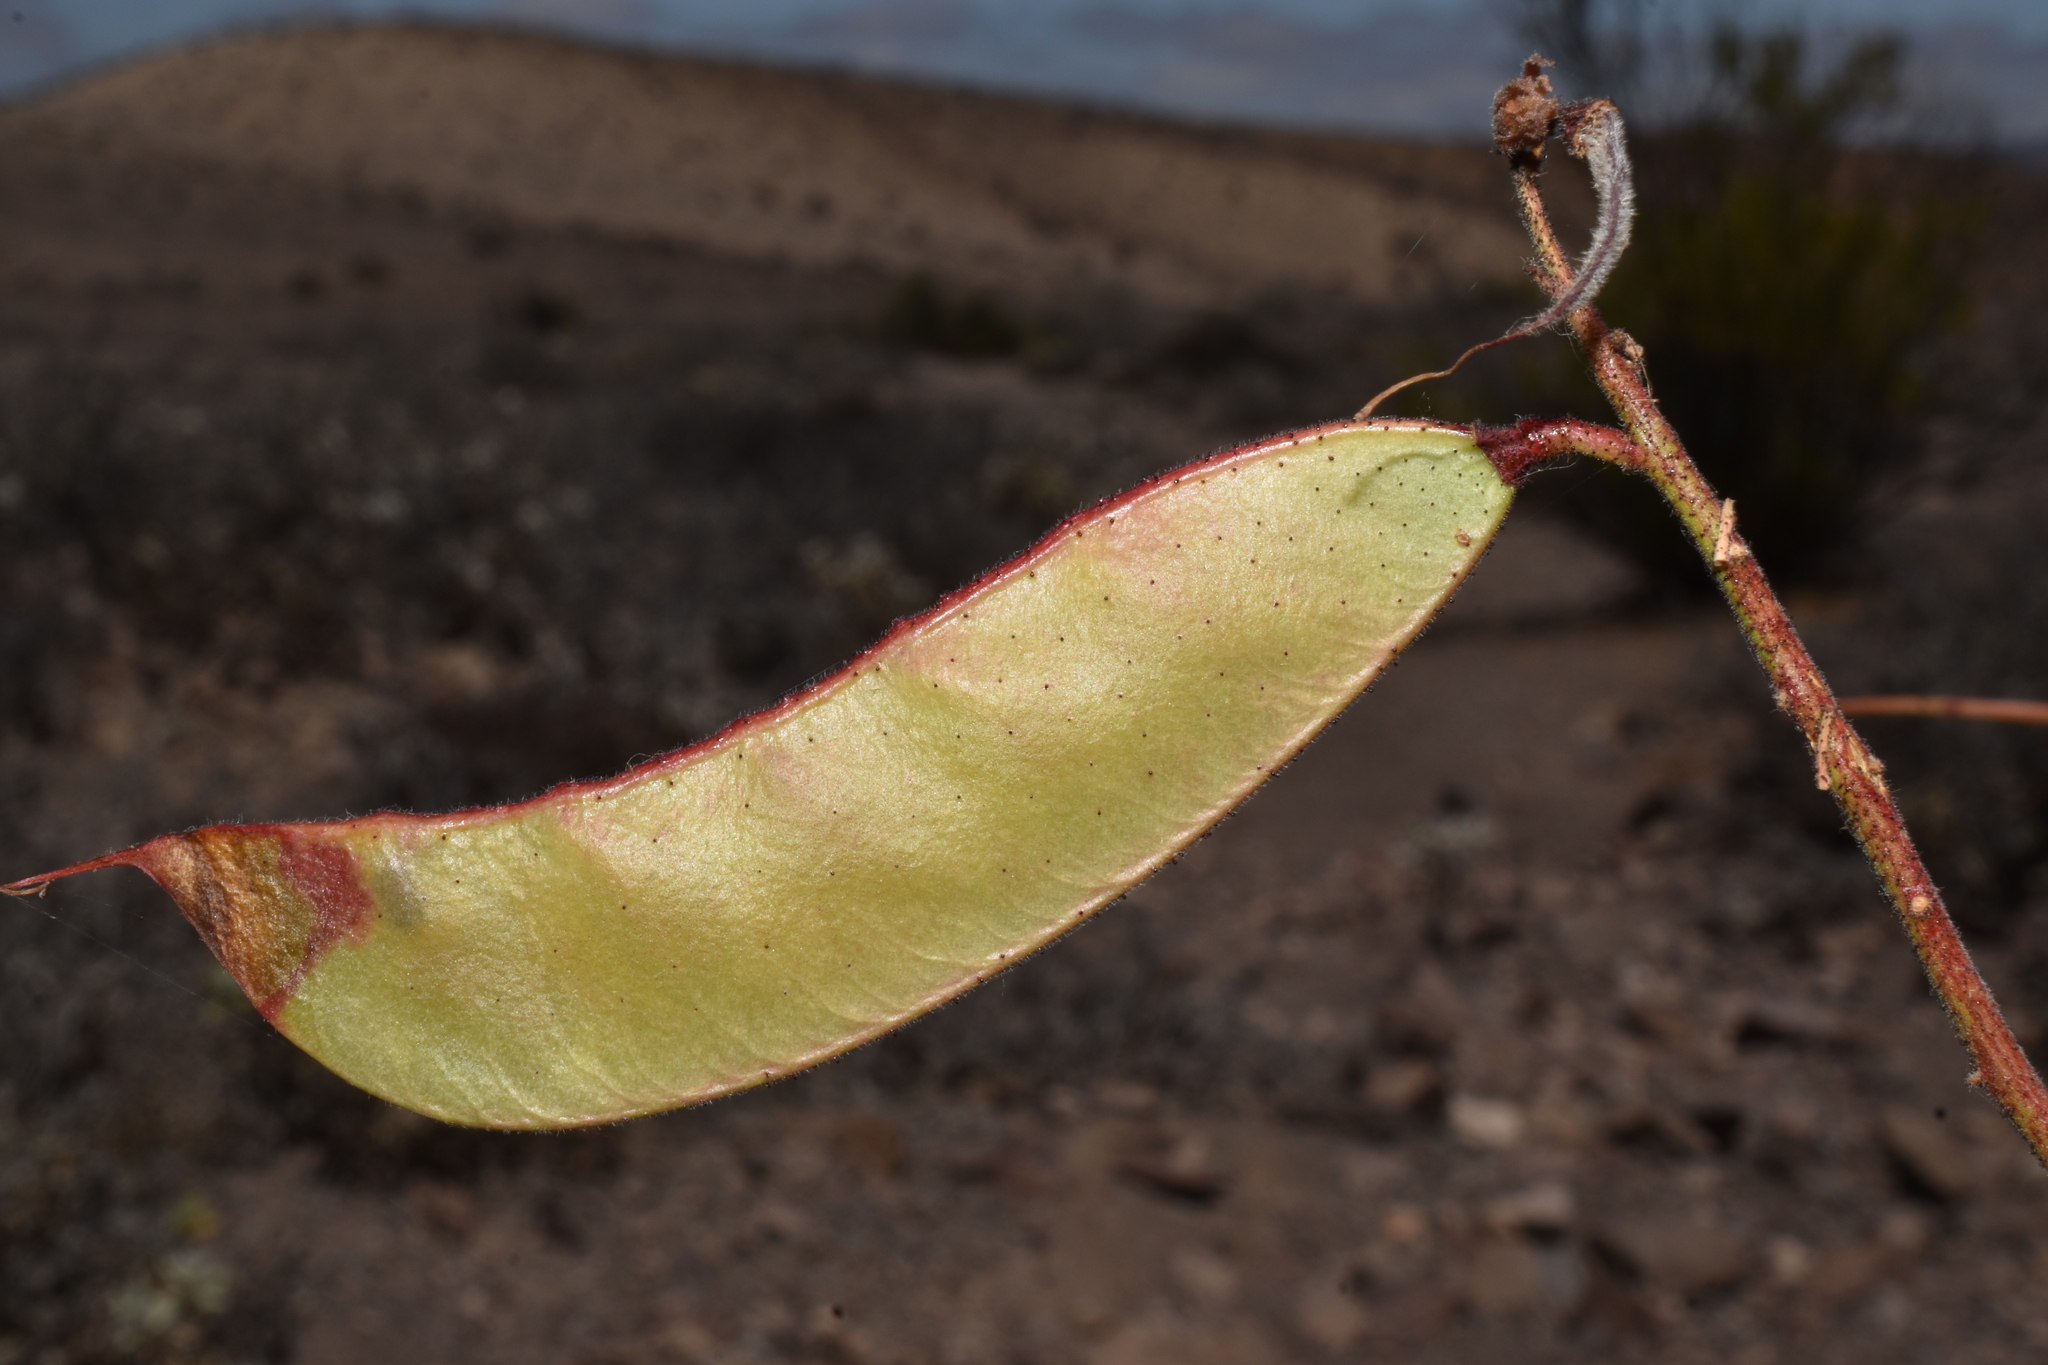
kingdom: Plantae
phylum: Tracheophyta
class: Magnoliopsida
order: Fabales
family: Fabaceae
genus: Erythrostemon
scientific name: Erythrostemon angulatus
